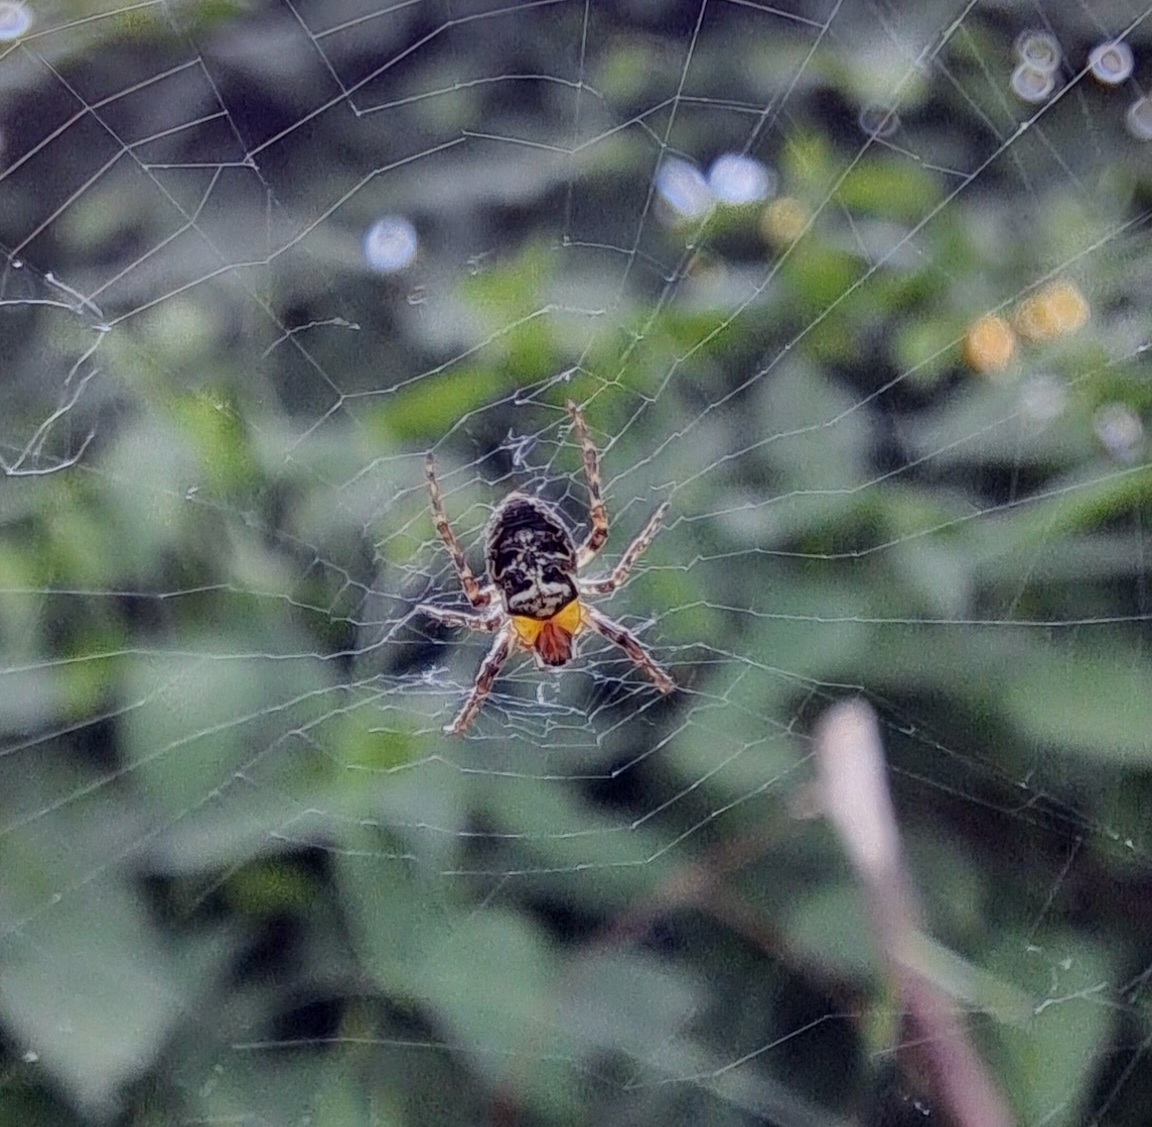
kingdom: Animalia
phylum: Arthropoda
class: Arachnida
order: Araneae
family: Araneidae
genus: Zilla
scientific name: Zilla diodia
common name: Zilla diodia
